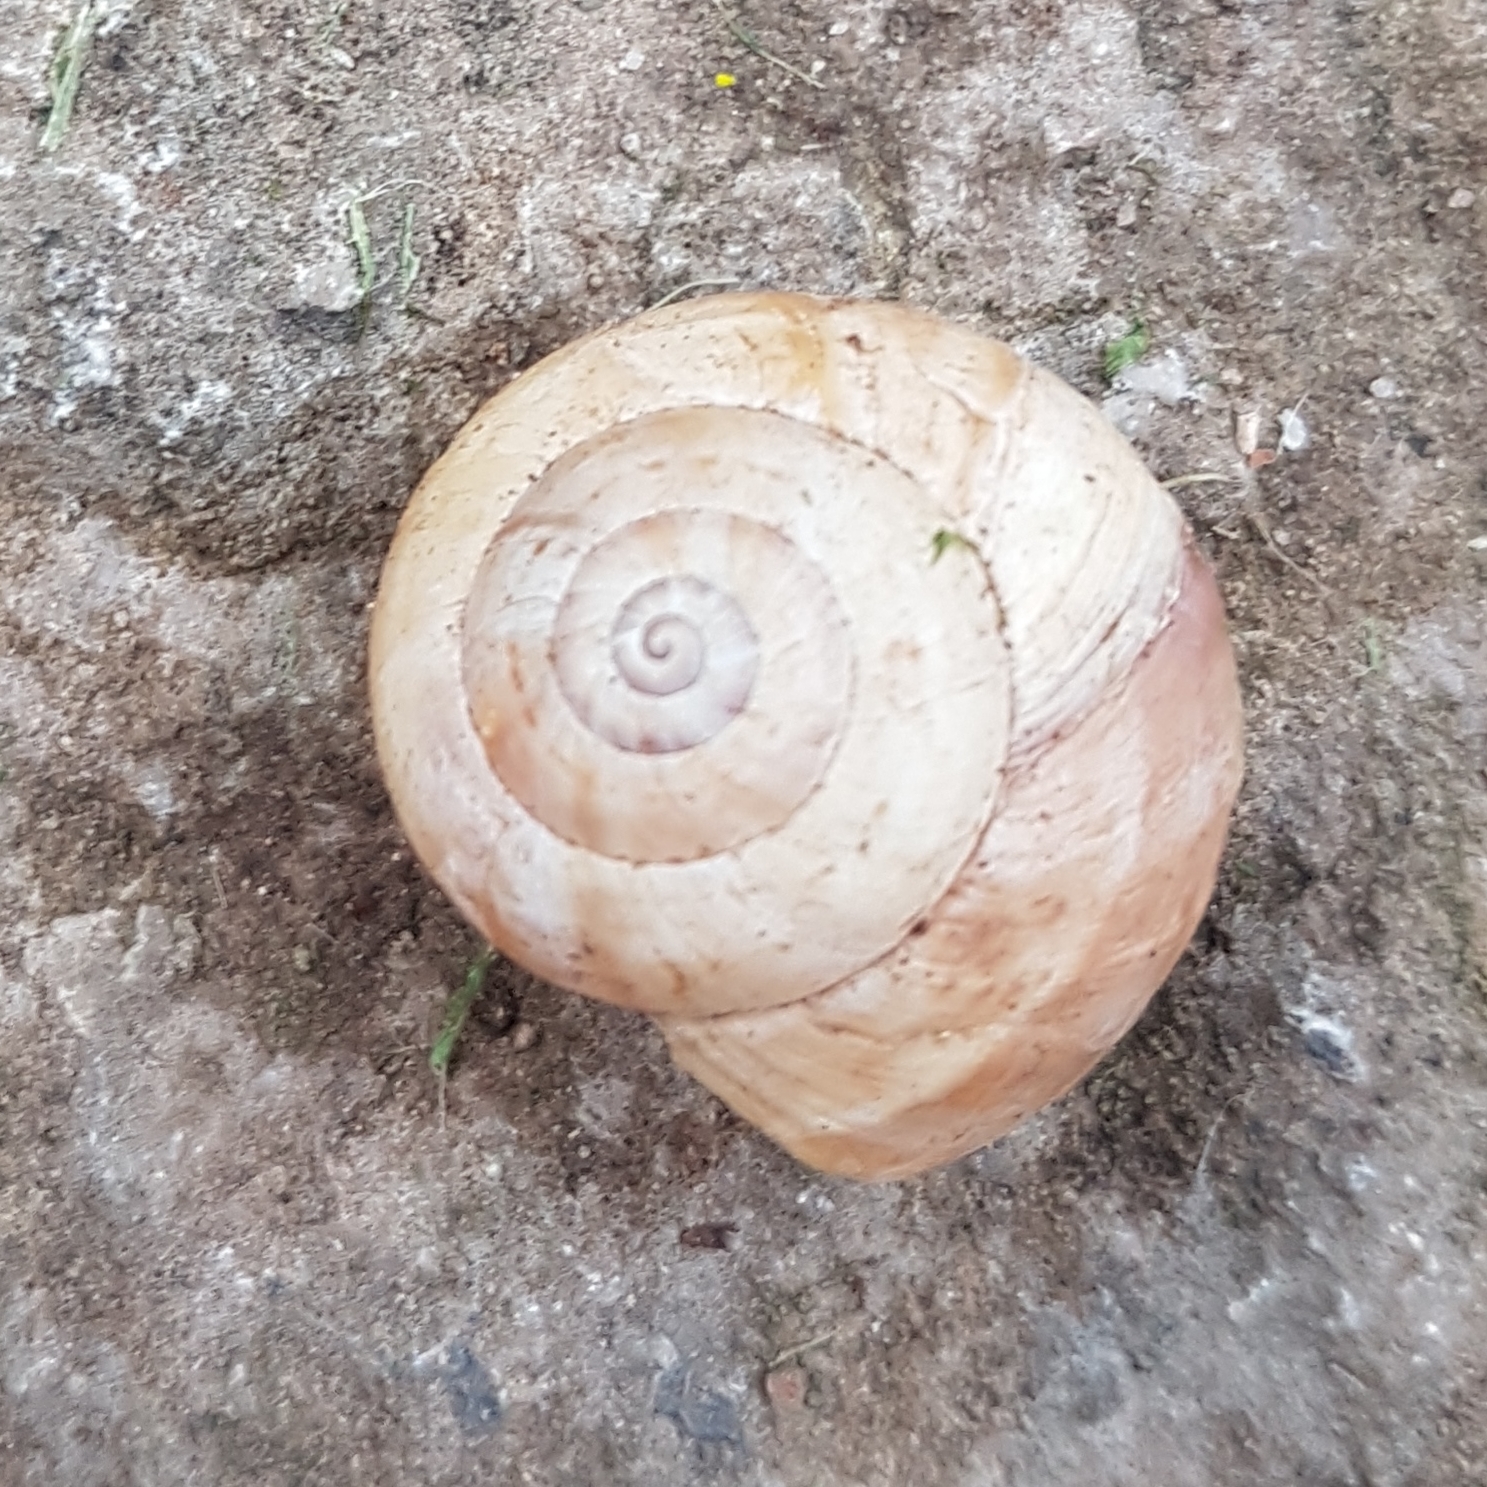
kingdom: Animalia
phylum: Mollusca
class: Gastropoda
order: Stylommatophora
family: Helicidae
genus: Theba
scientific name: Theba pisana
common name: White snail
